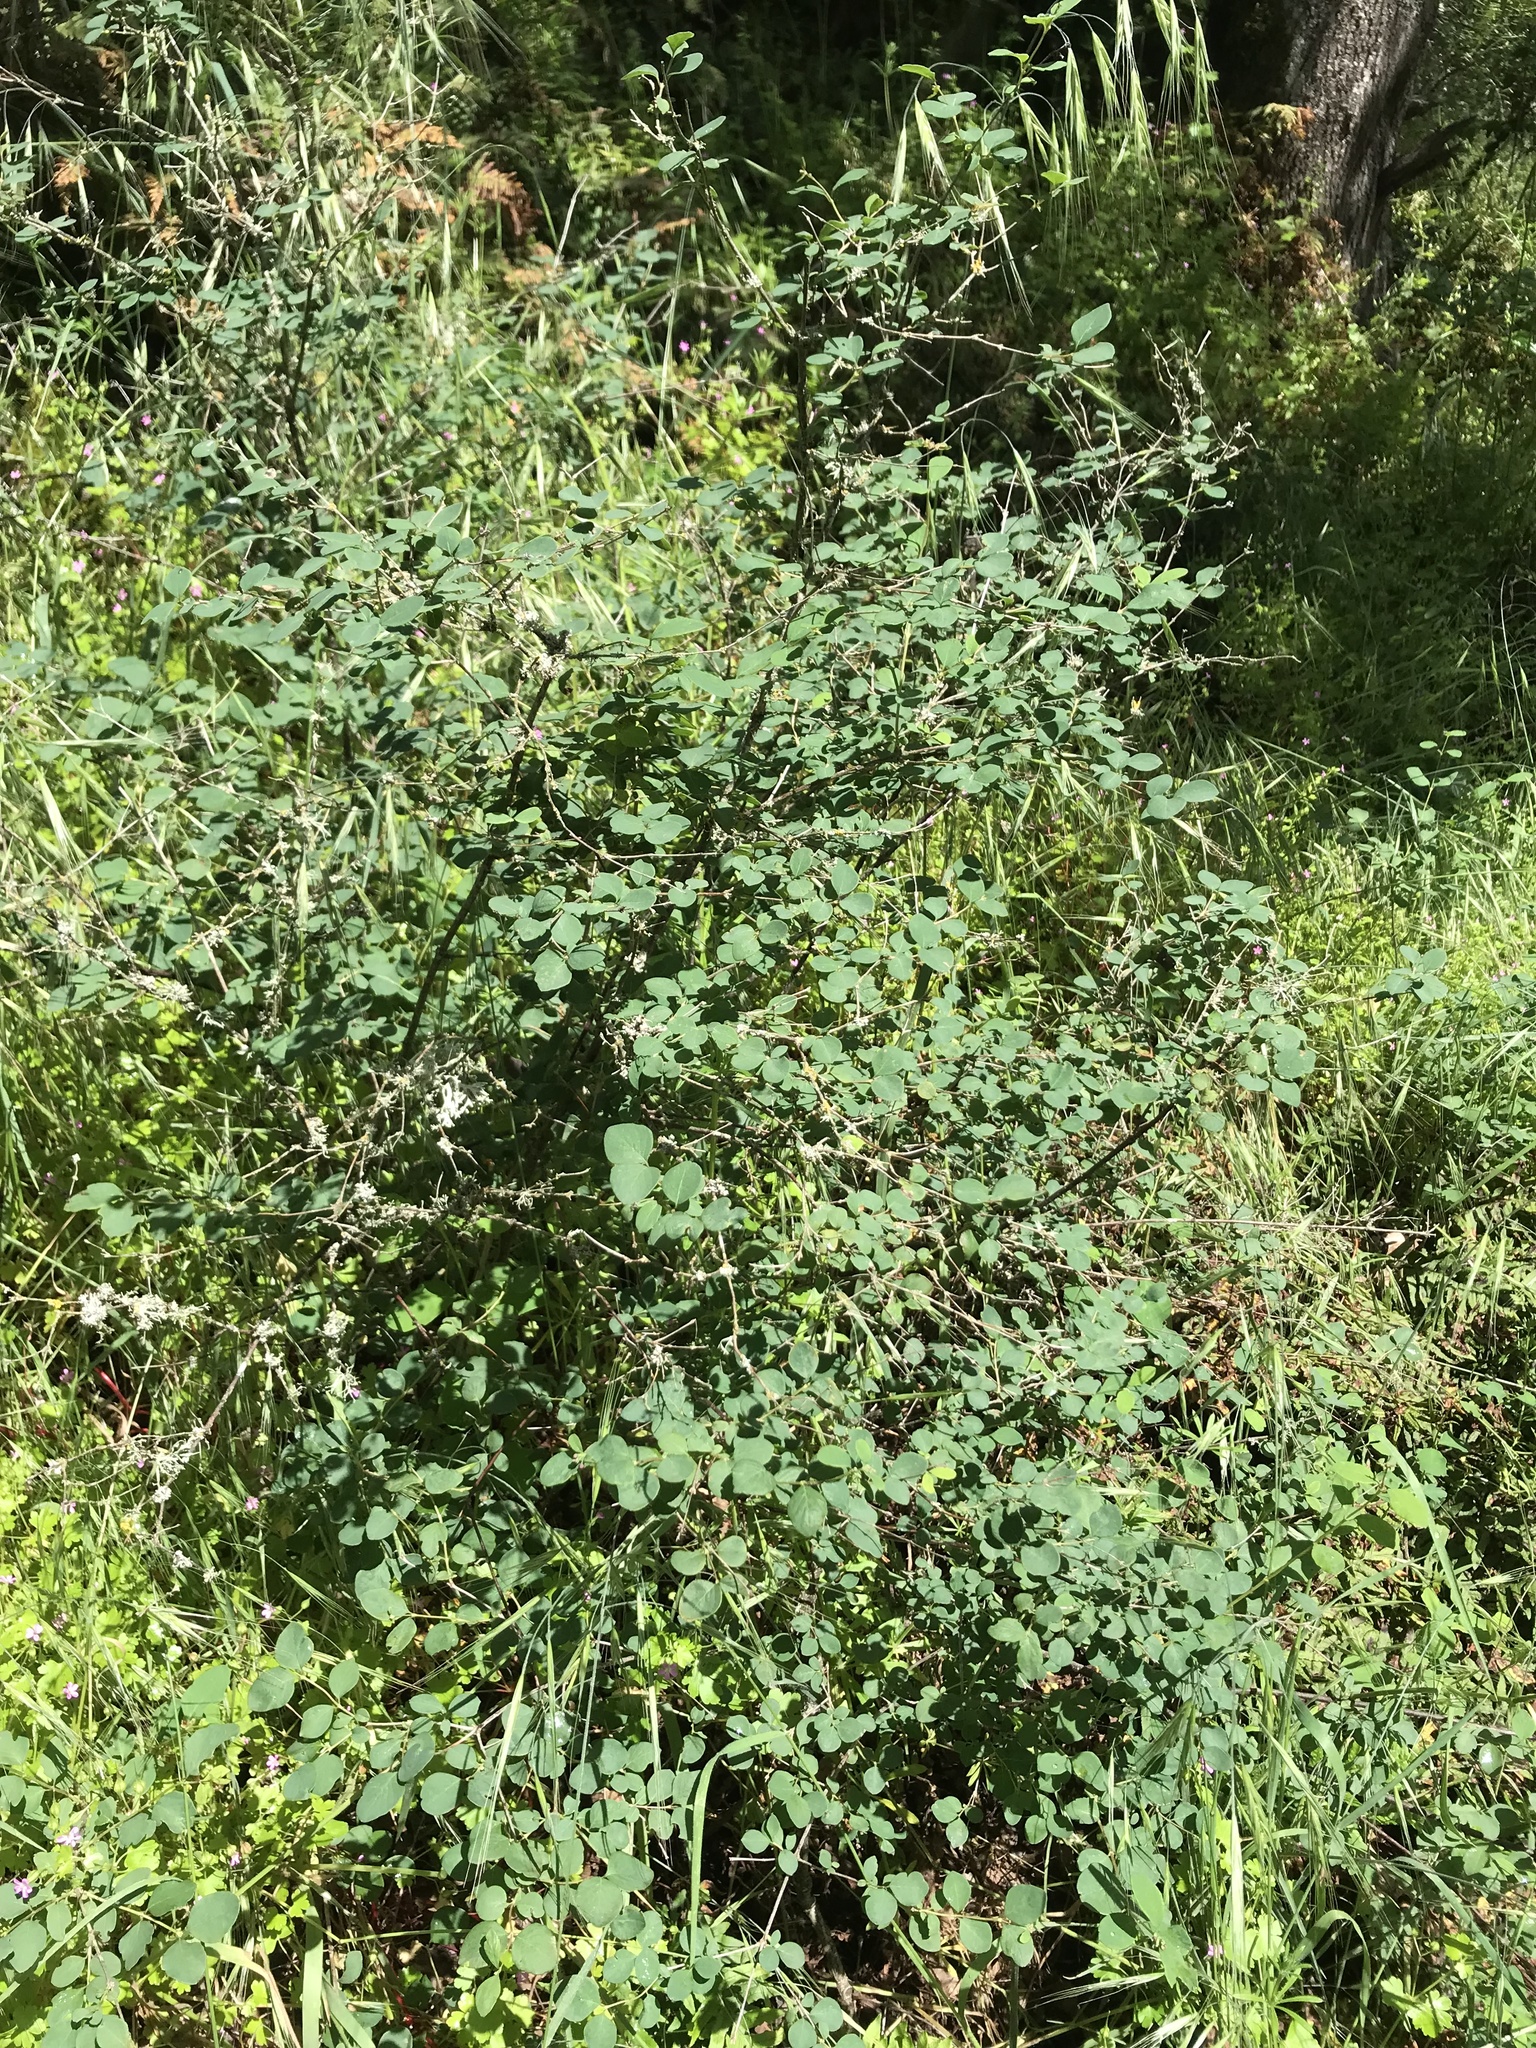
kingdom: Plantae
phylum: Tracheophyta
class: Magnoliopsida
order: Dipsacales
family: Caprifoliaceae
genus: Symphoricarpos
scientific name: Symphoricarpos albus
